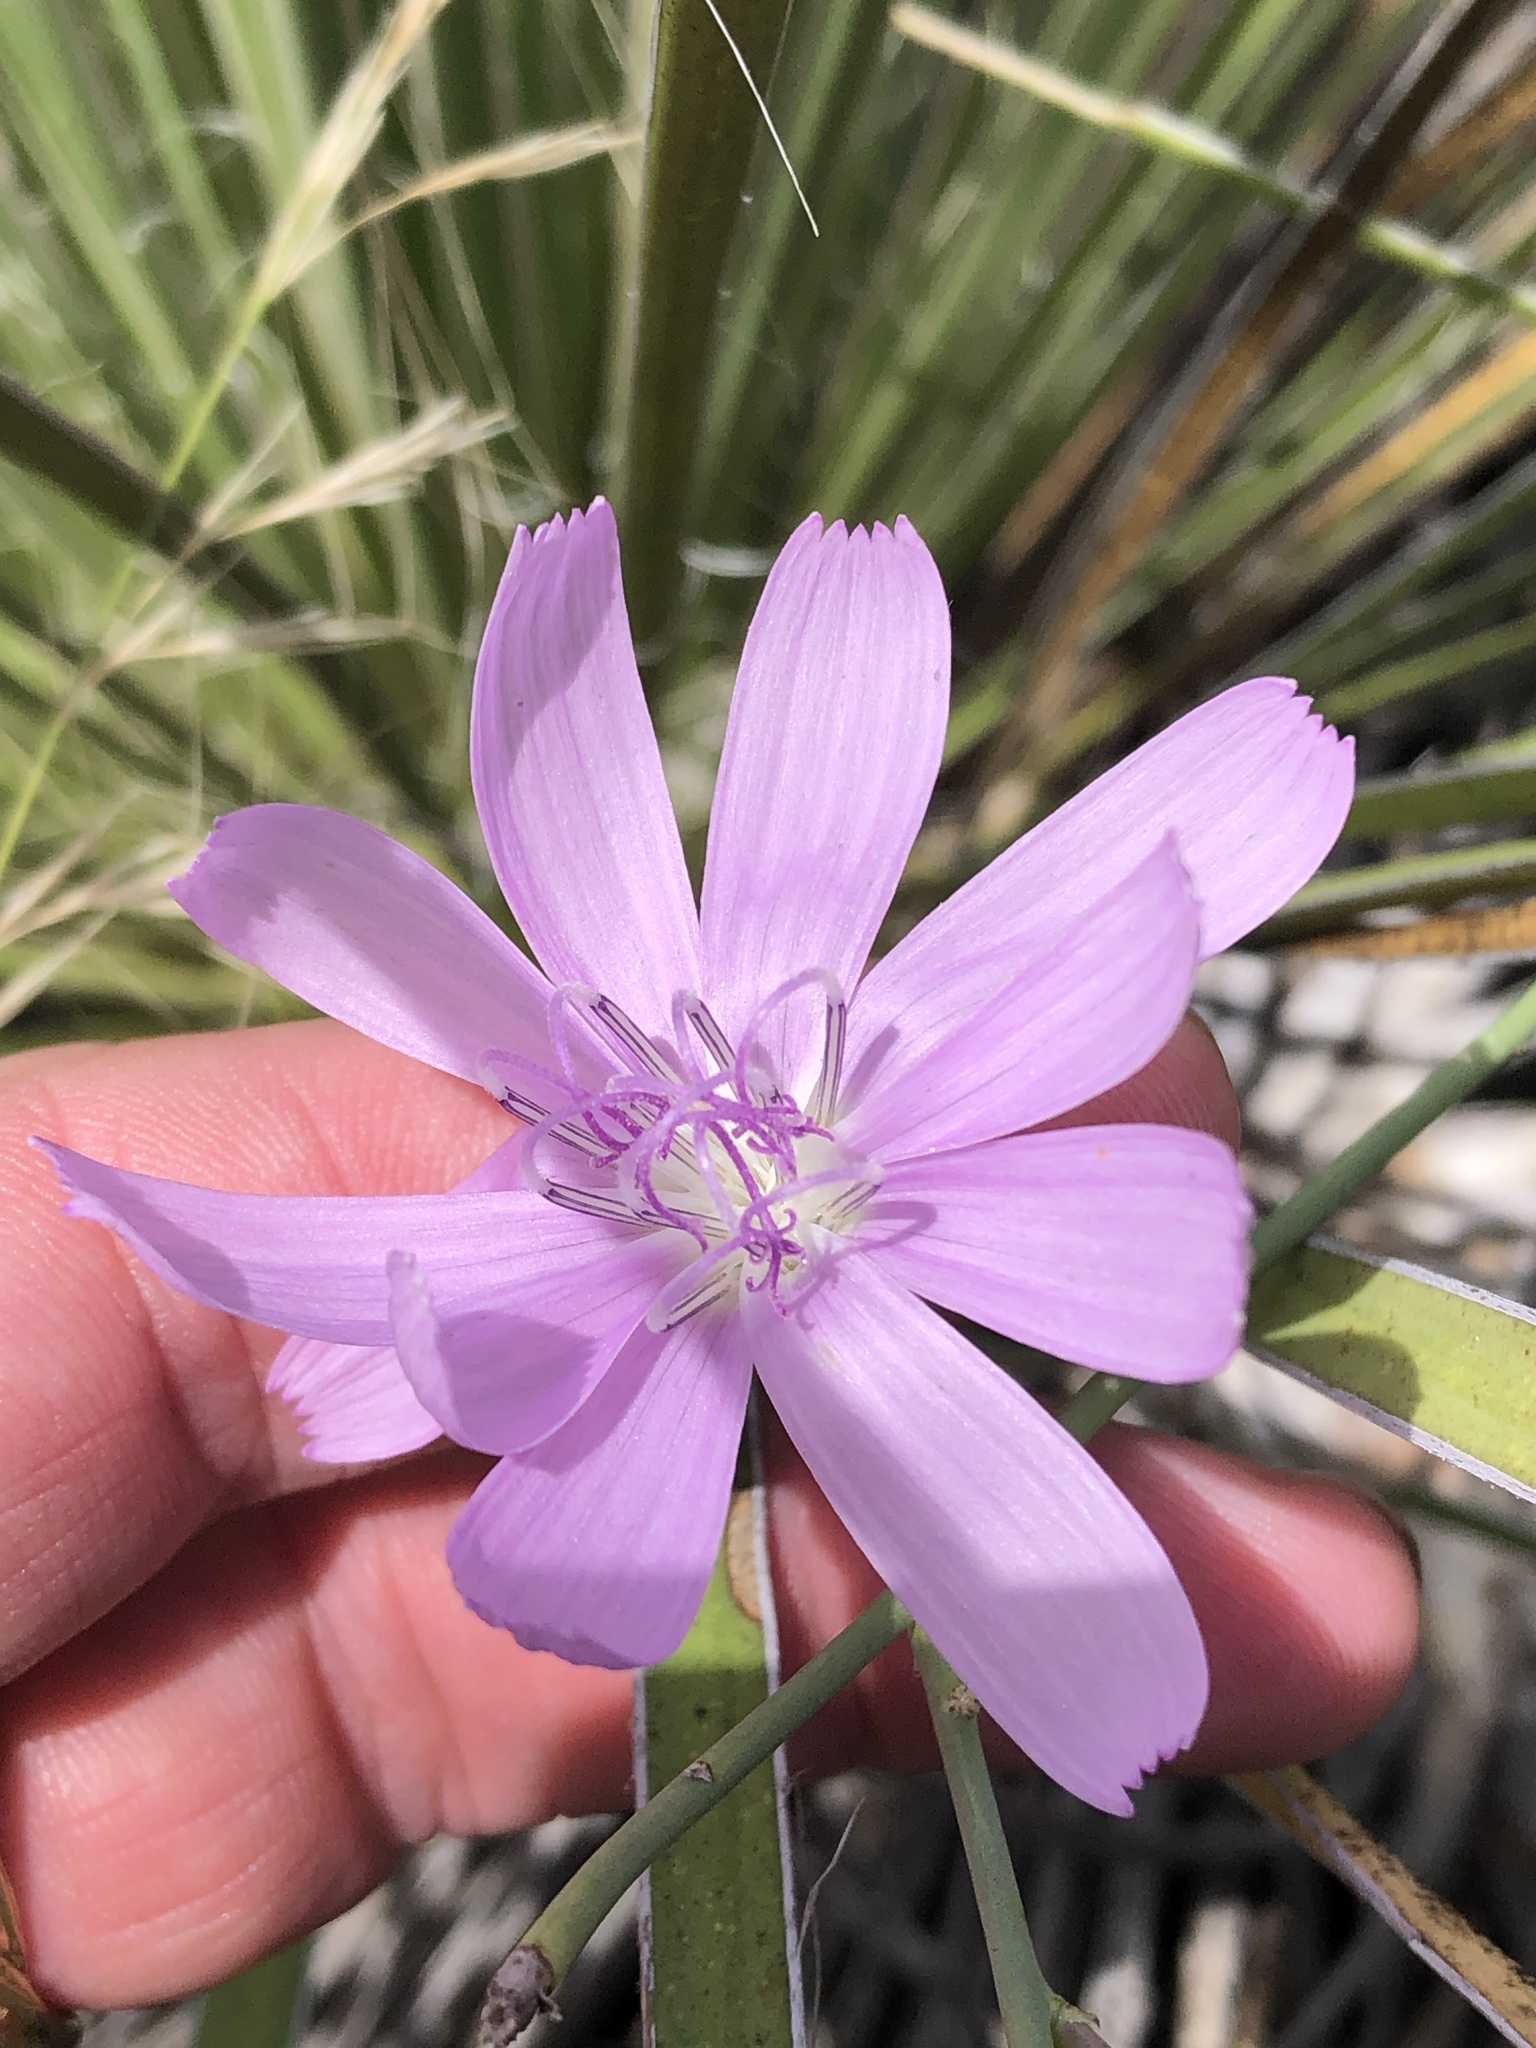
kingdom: Plantae
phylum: Tracheophyta
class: Magnoliopsida
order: Asterales
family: Asteraceae
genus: Lygodesmia
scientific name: Lygodesmia texana
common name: Texas skeleton-plant
